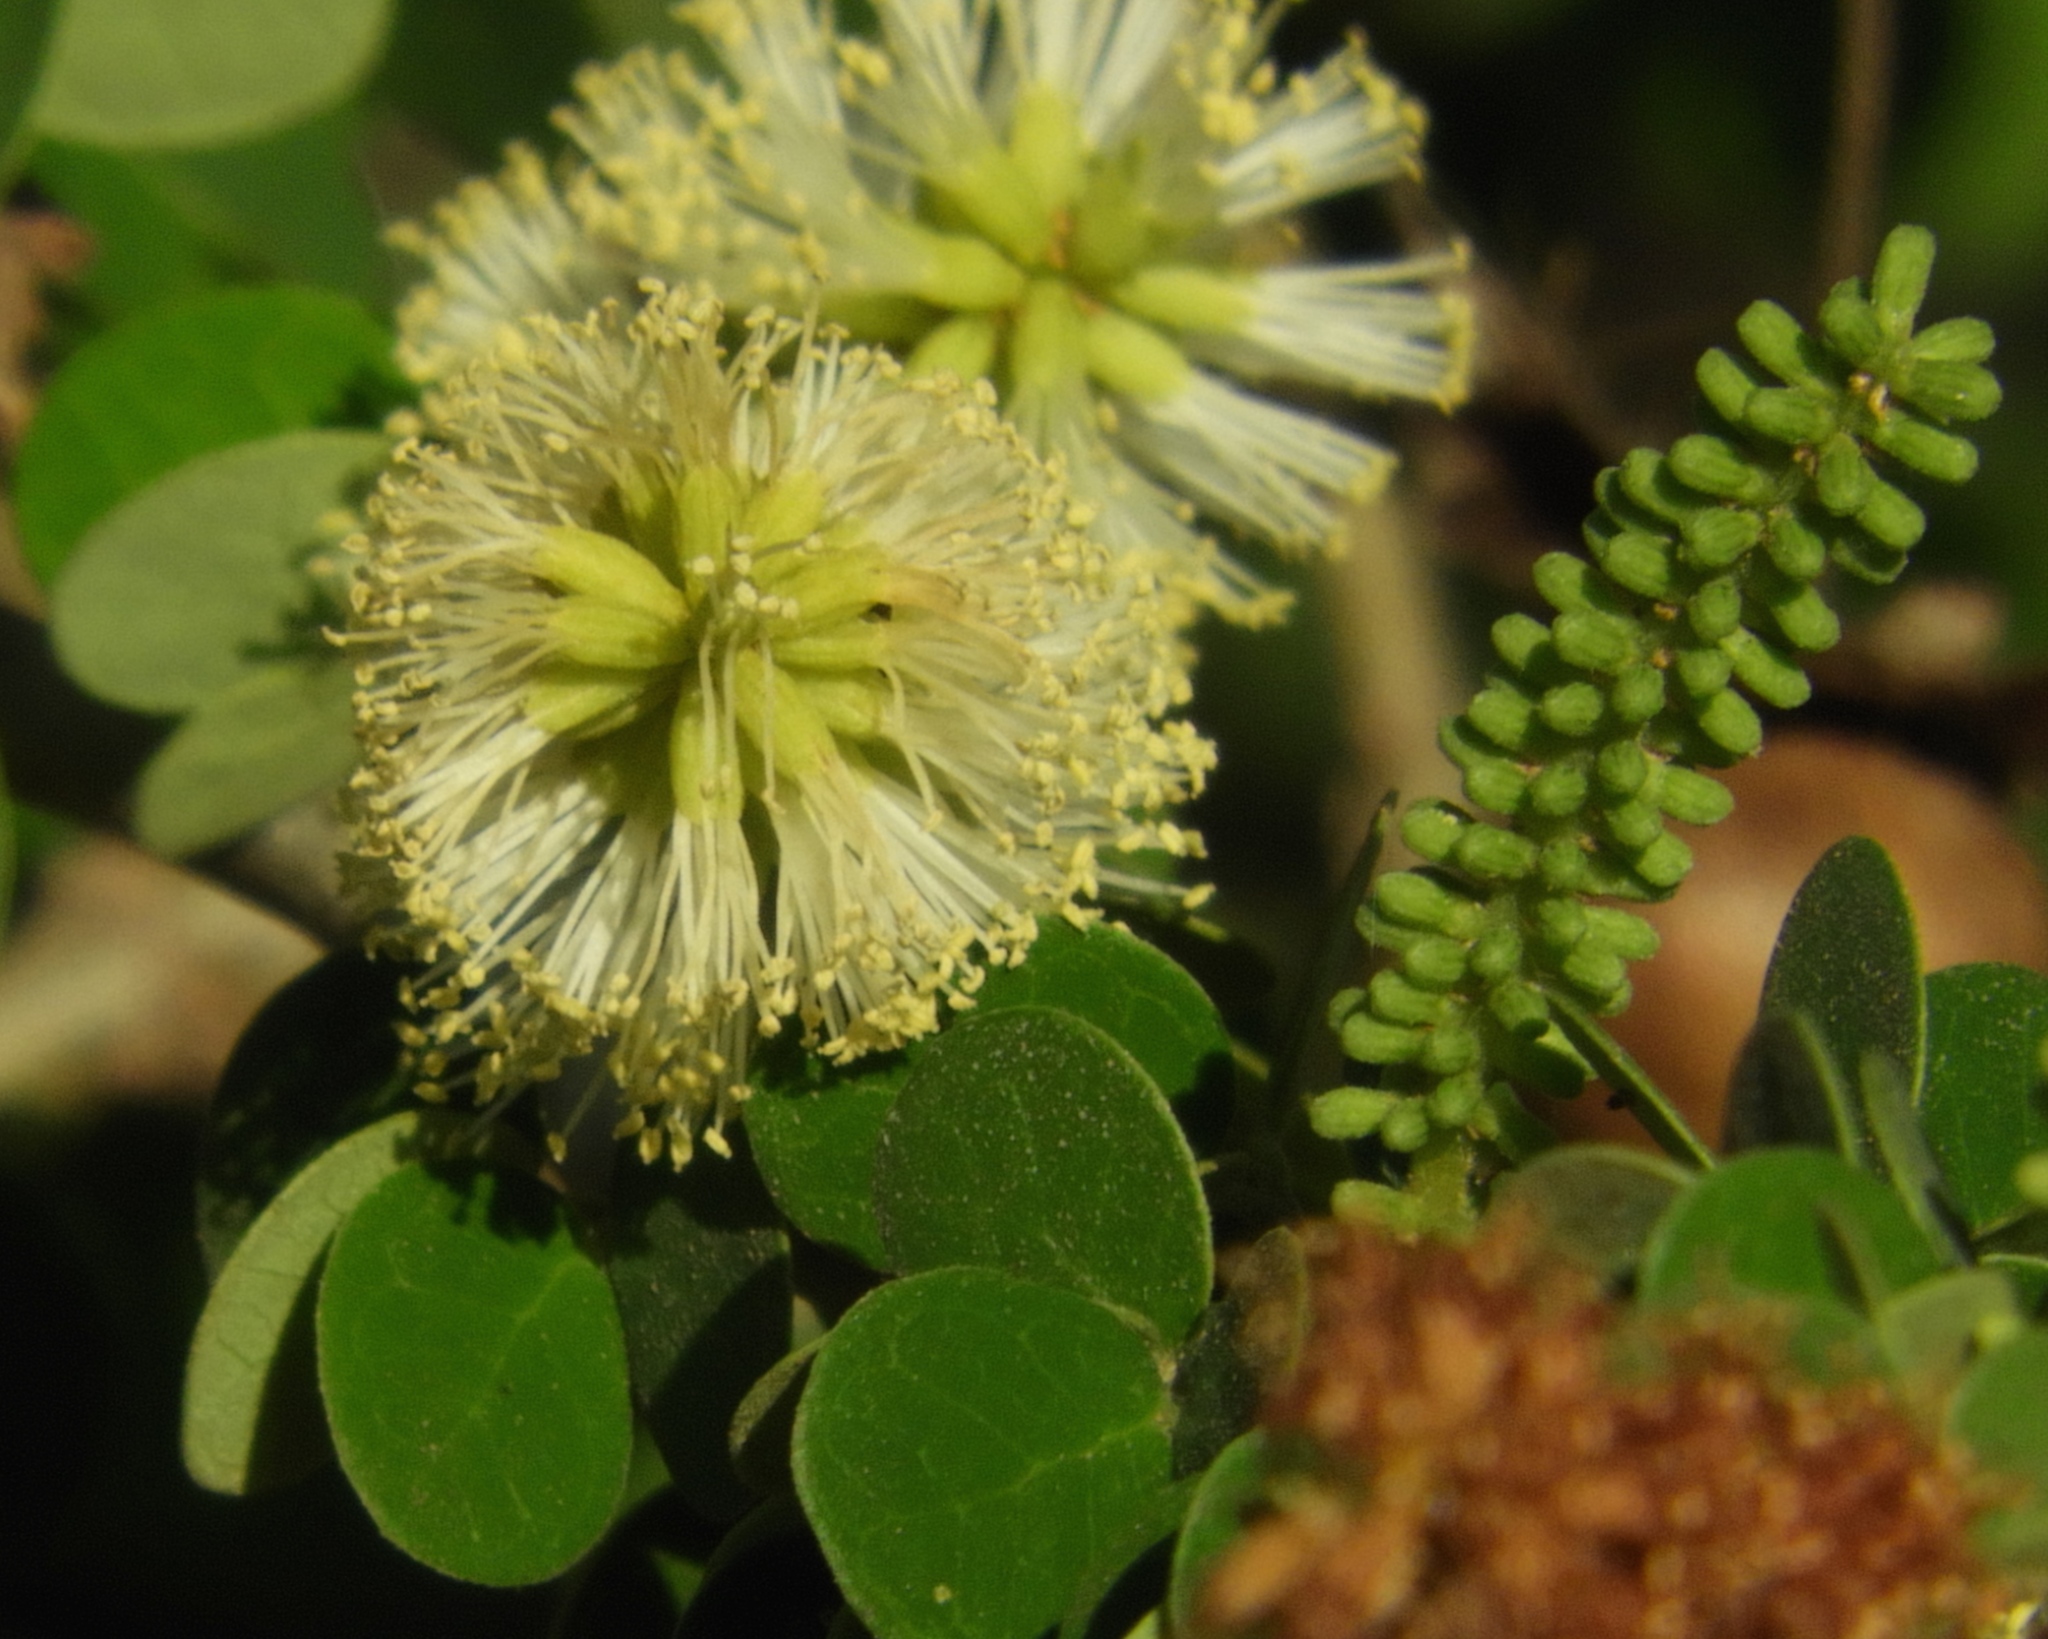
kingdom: Plantae
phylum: Tracheophyta
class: Magnoliopsida
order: Fabales
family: Fabaceae
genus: Microlobius
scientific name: Microlobius foetidus
